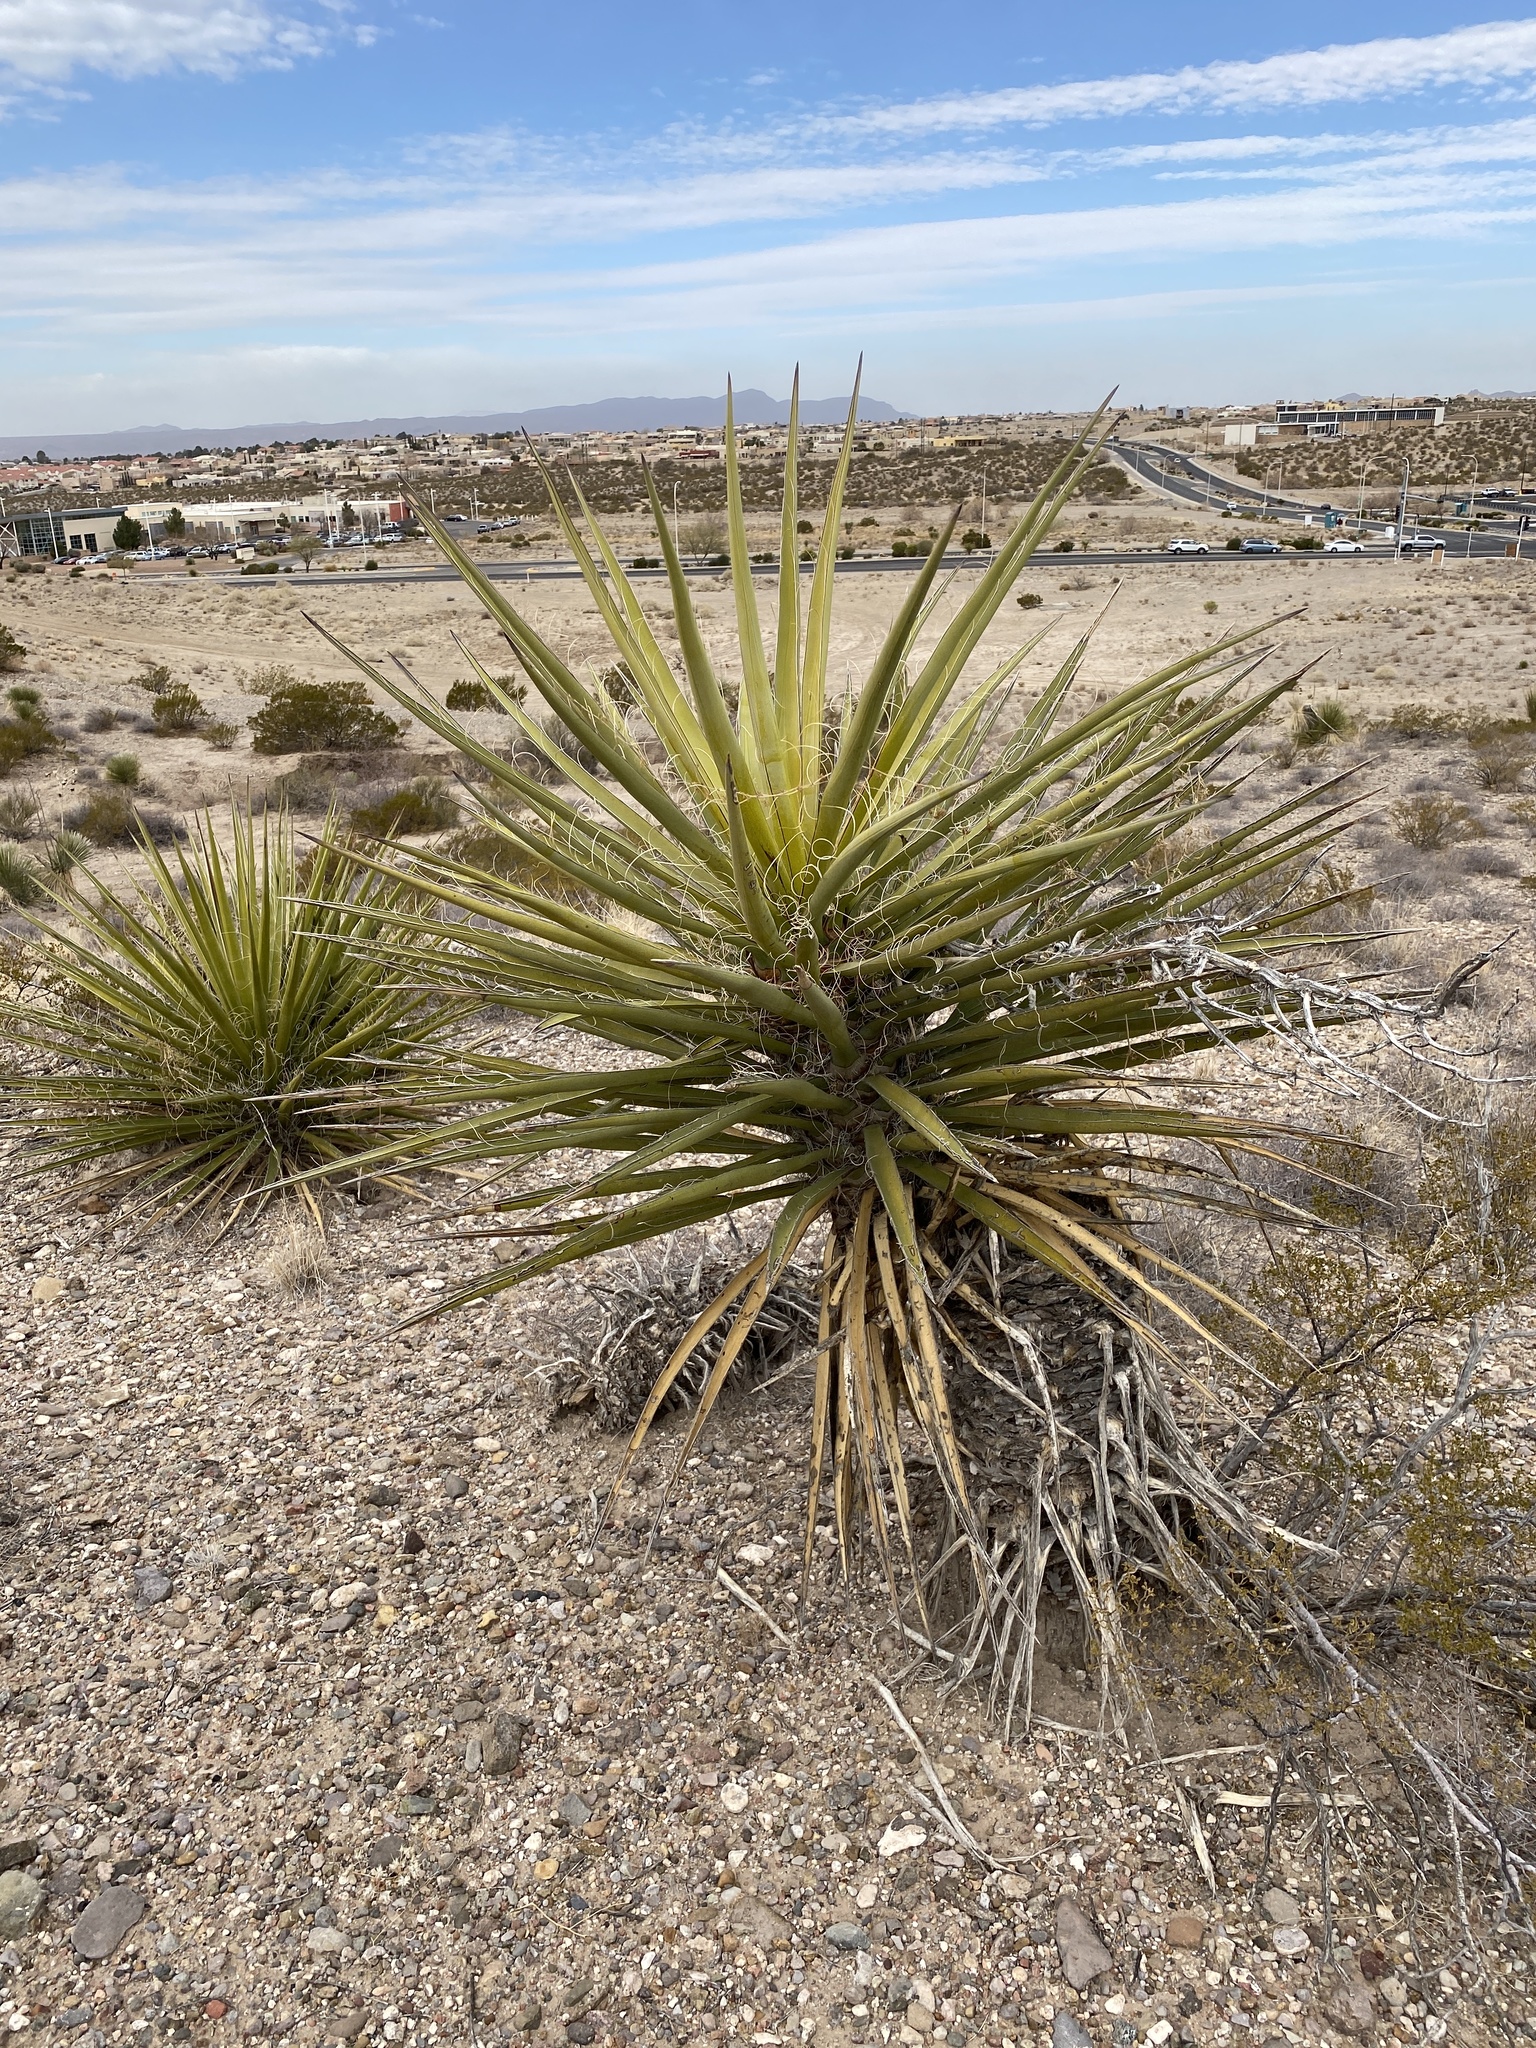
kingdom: Plantae
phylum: Tracheophyta
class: Liliopsida
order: Asparagales
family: Asparagaceae
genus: Yucca
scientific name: Yucca treculiana
